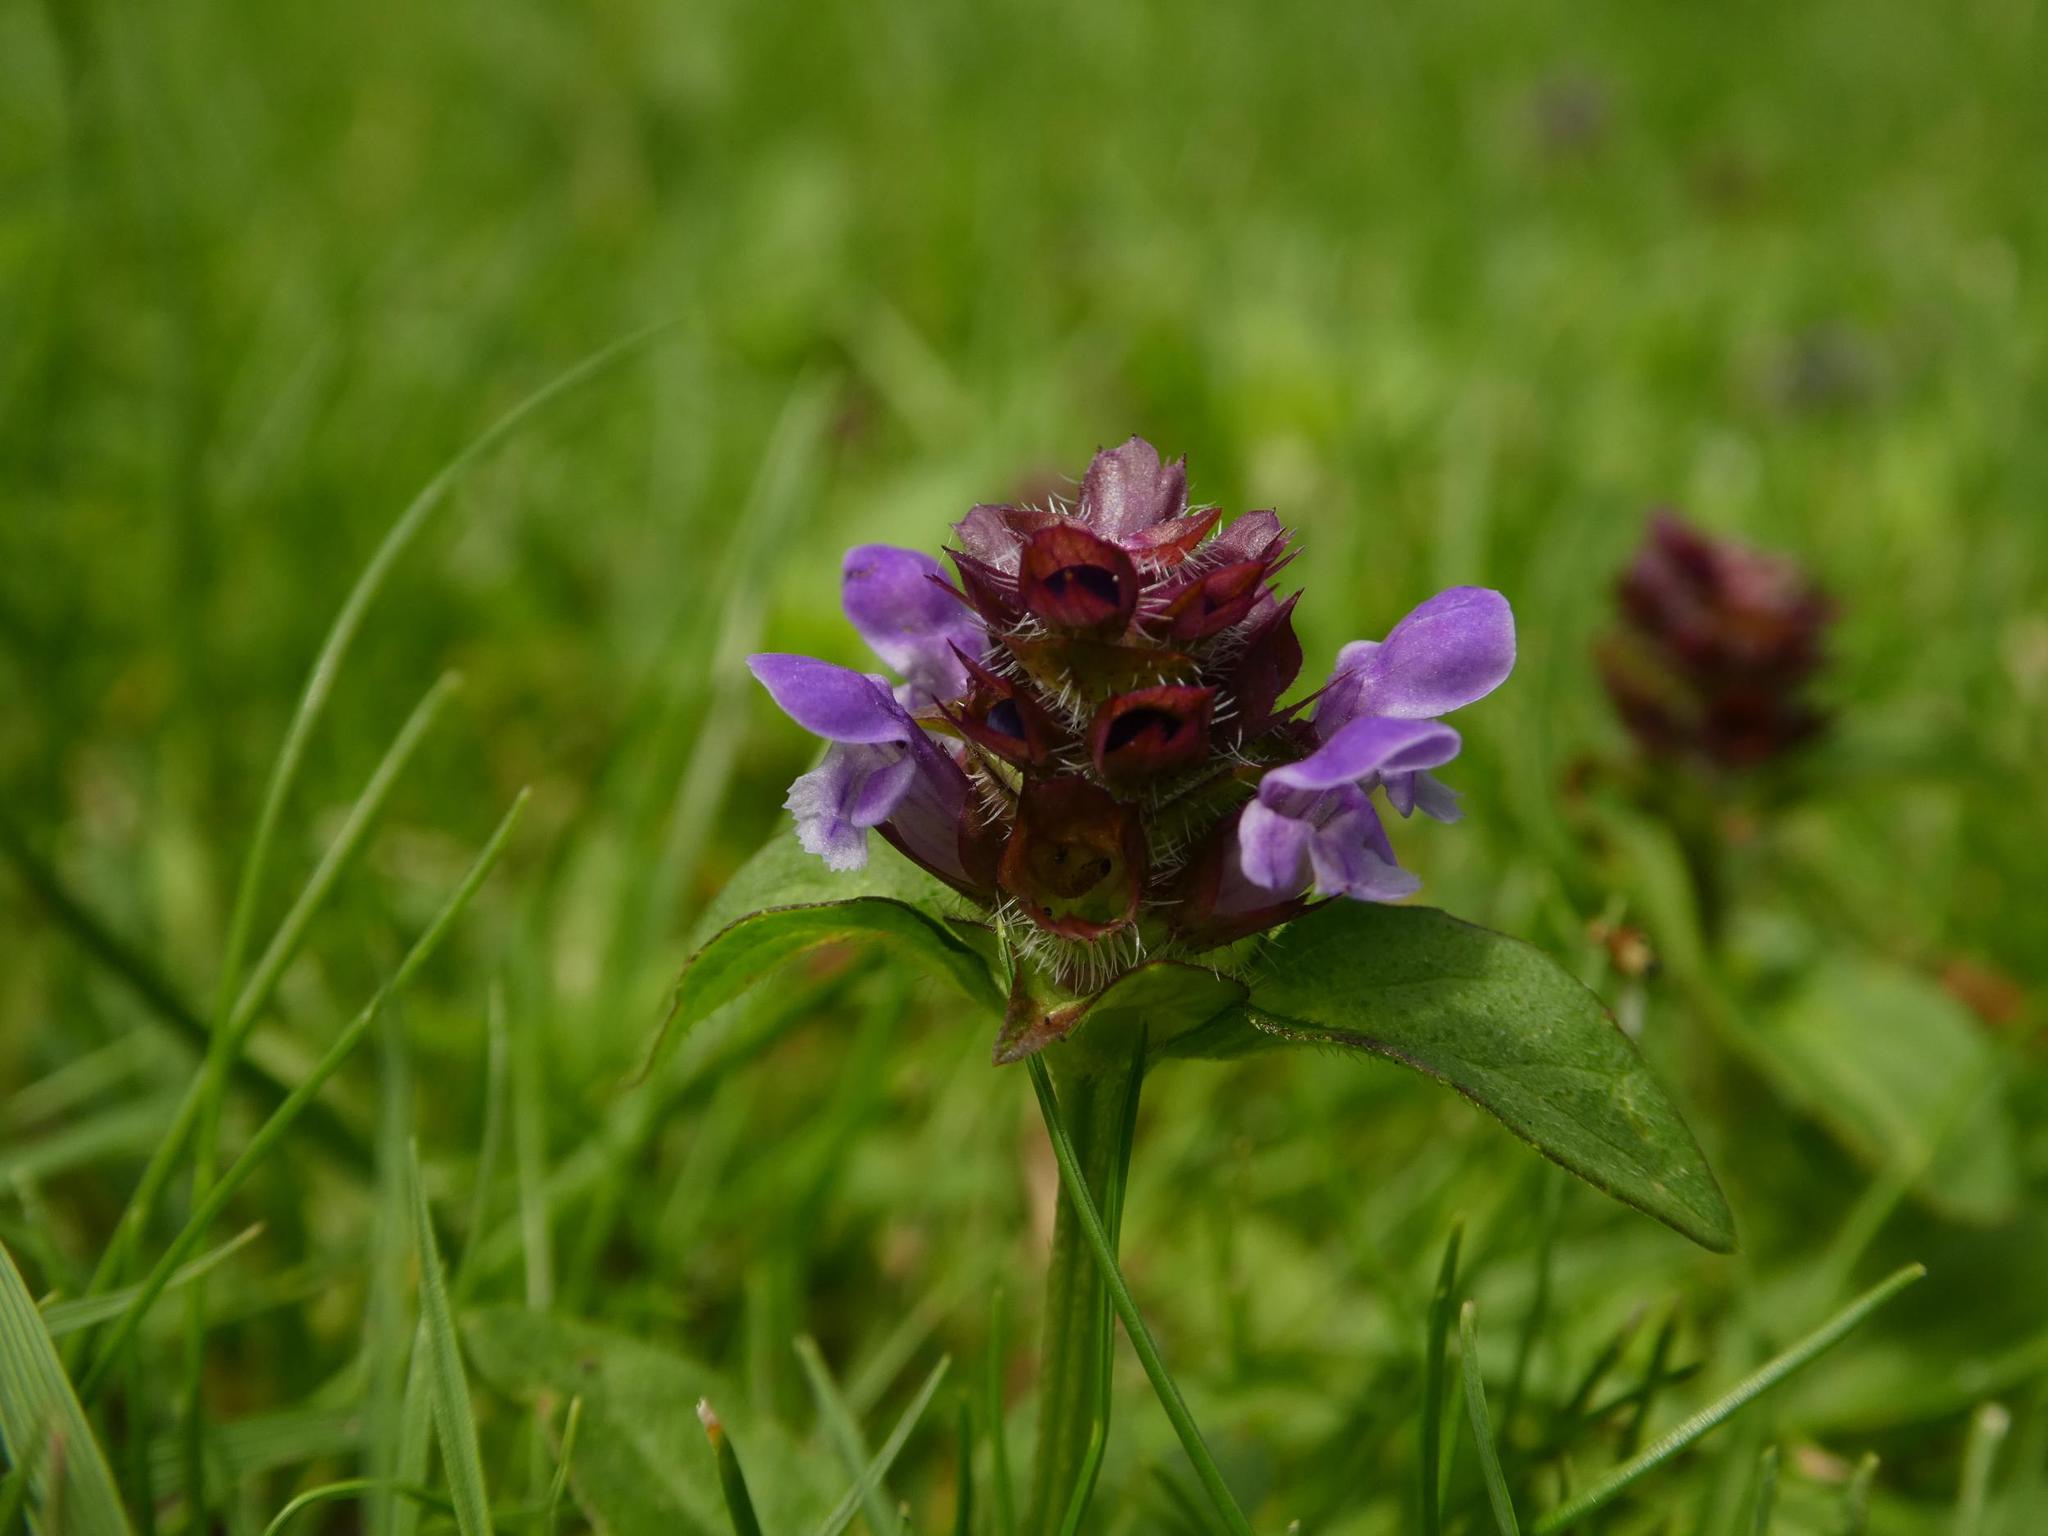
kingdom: Plantae
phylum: Tracheophyta
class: Magnoliopsida
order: Lamiales
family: Lamiaceae
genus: Prunella
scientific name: Prunella vulgaris
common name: Heal-all
